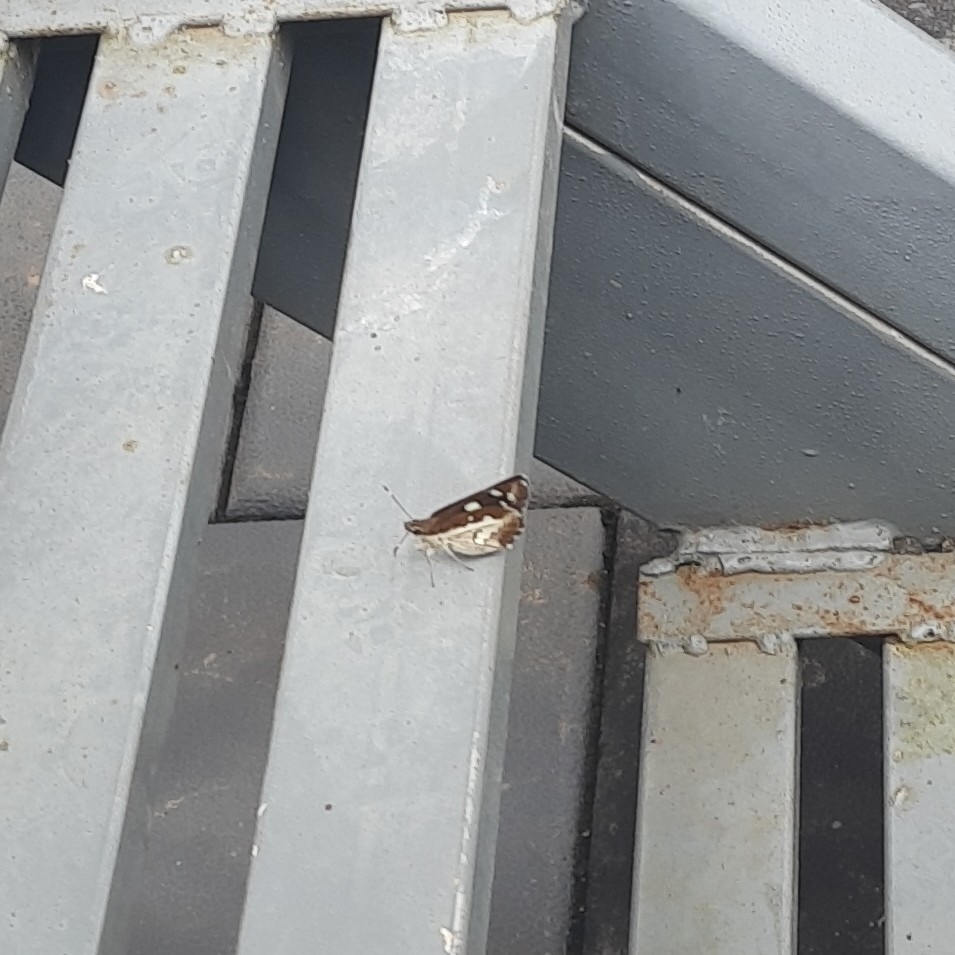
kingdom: Animalia
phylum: Arthropoda
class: Insecta
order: Lepidoptera
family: Hesperiidae
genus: Udaspes
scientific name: Udaspes folus
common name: Grass demon
